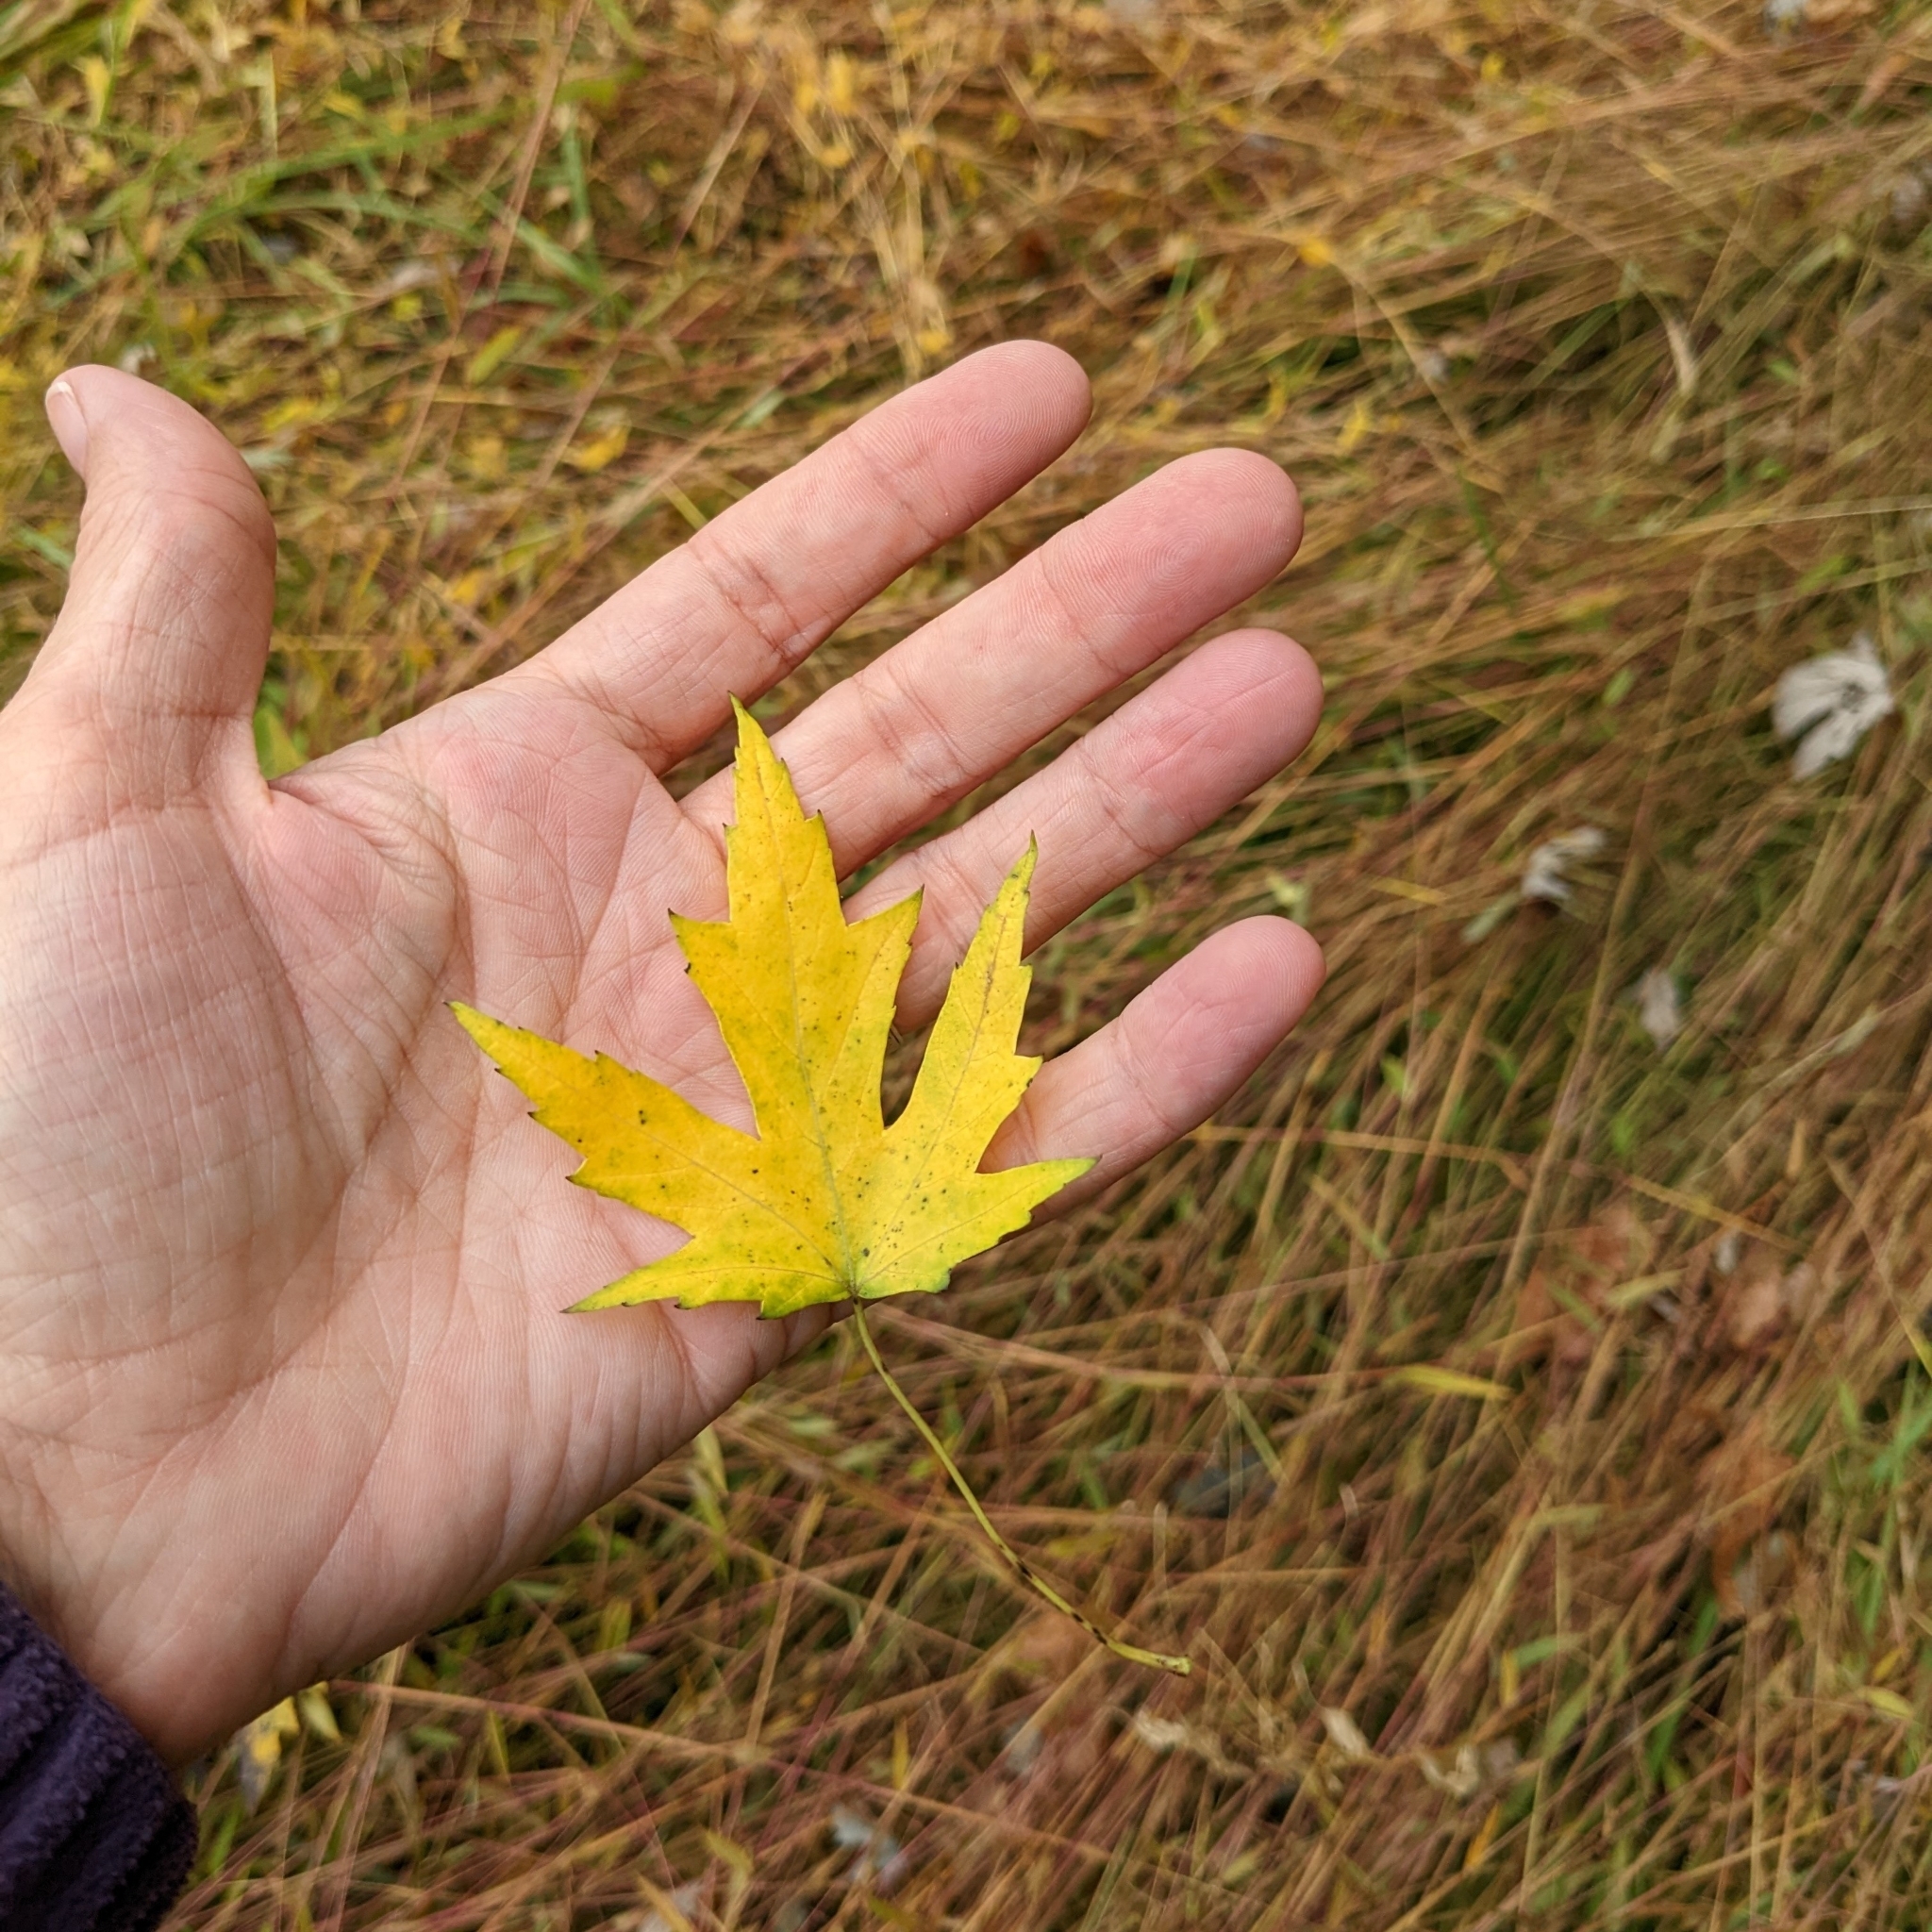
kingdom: Plantae
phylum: Tracheophyta
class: Magnoliopsida
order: Sapindales
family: Sapindaceae
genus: Acer
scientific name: Acer saccharinum
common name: Silver maple
